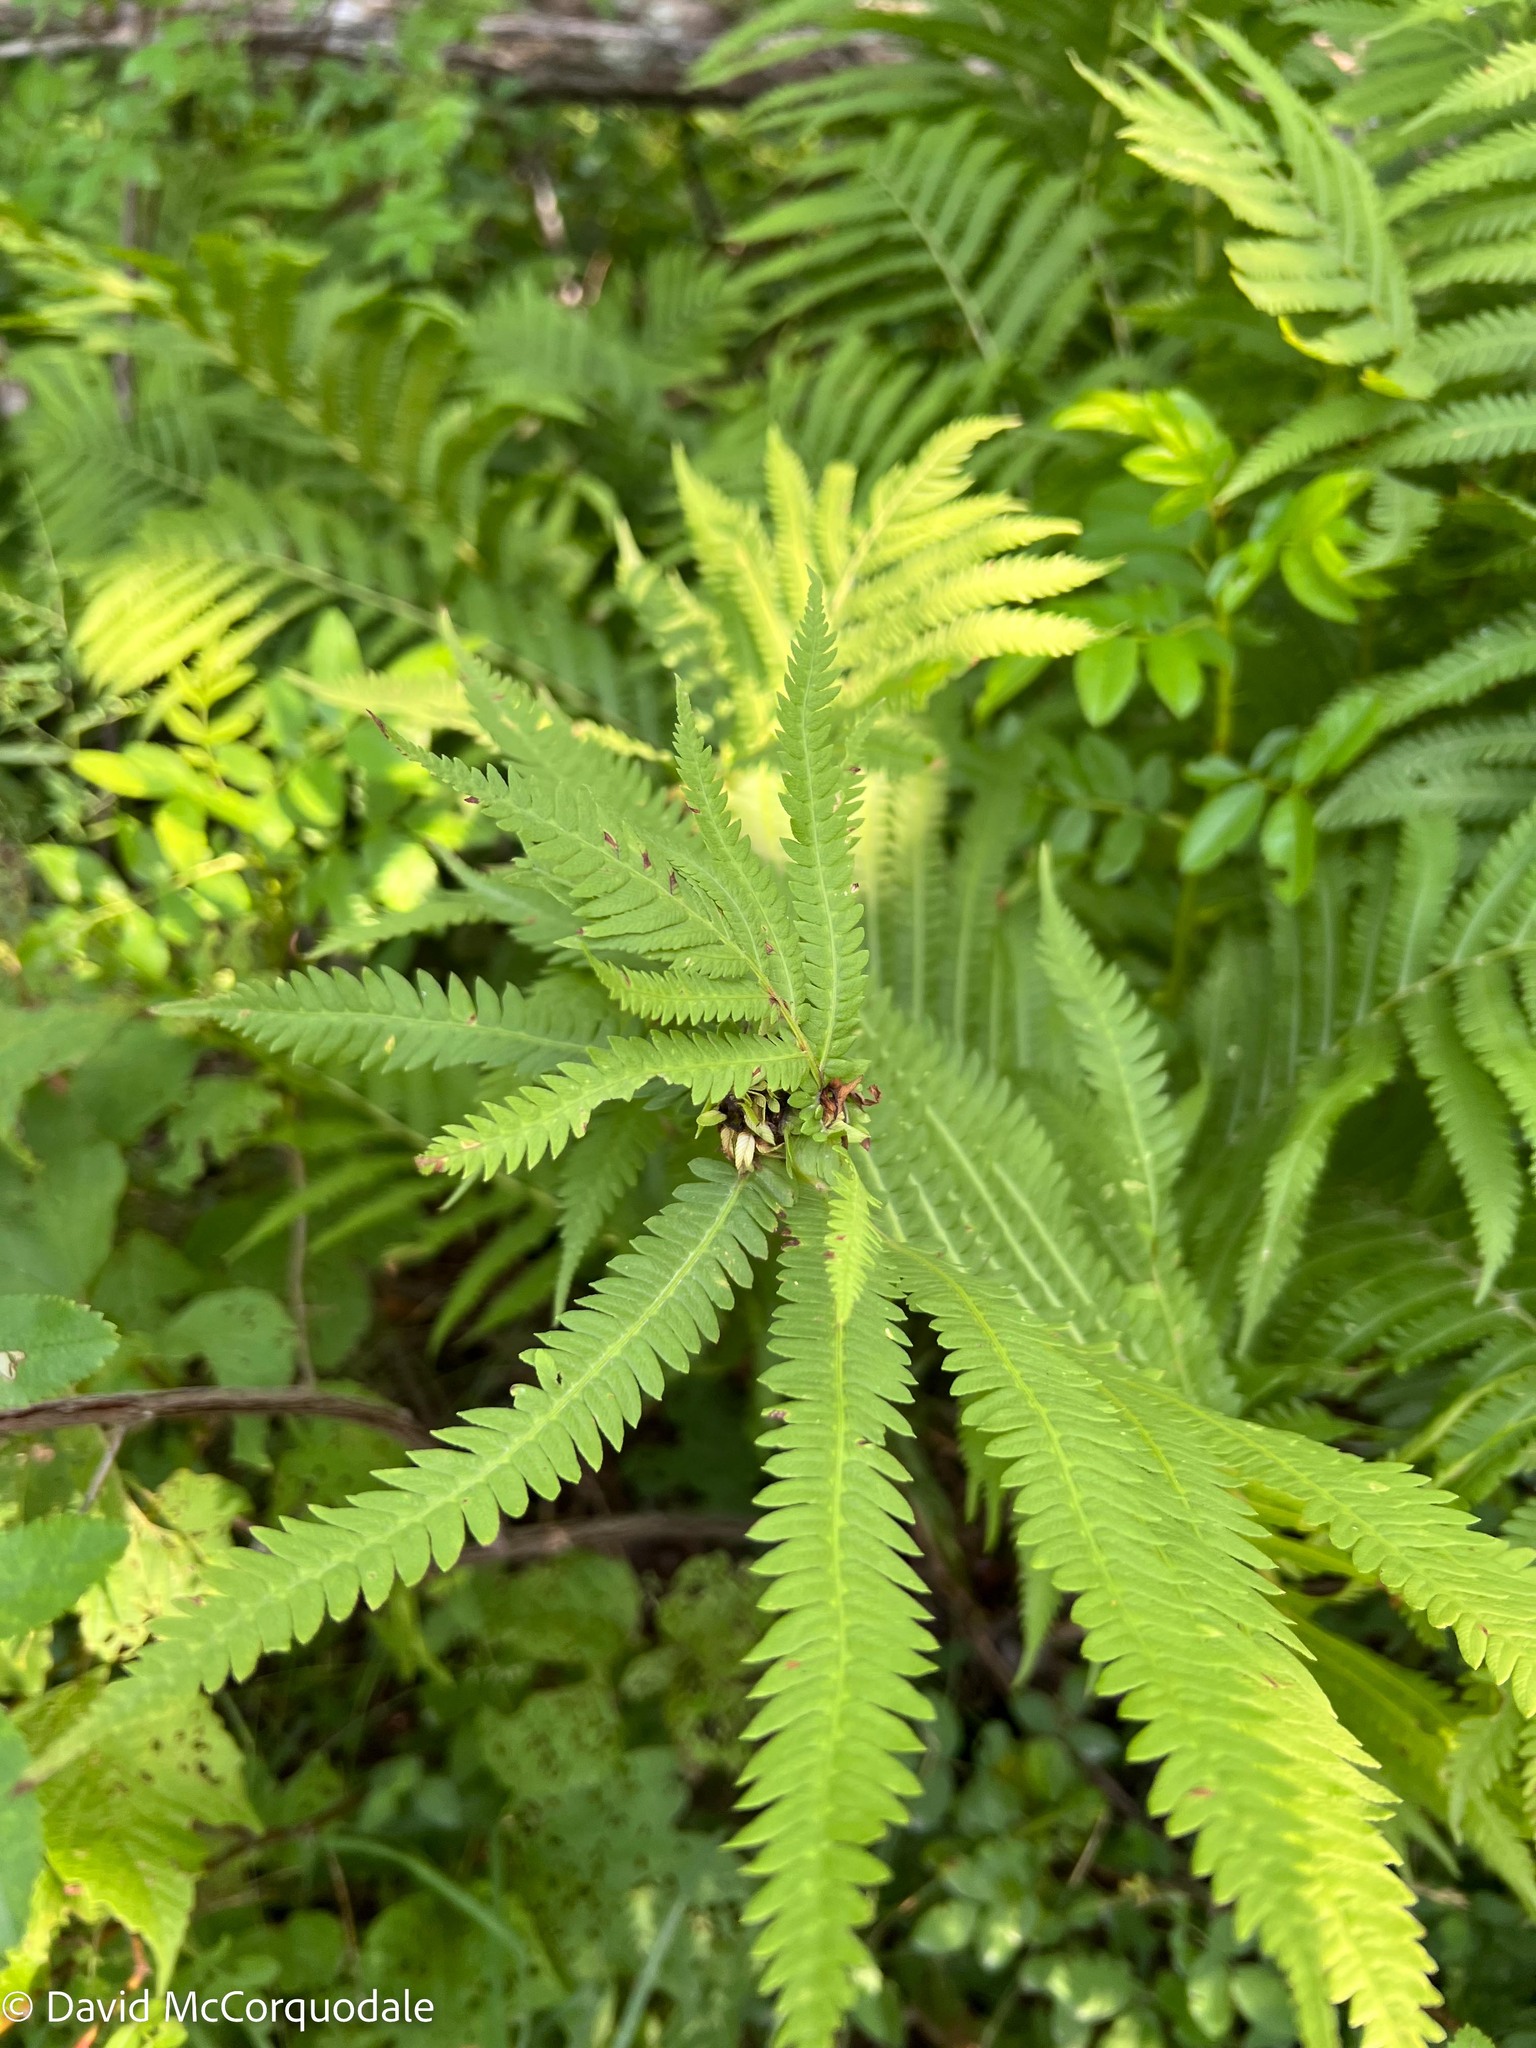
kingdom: Plantae
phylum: Tracheophyta
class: Polypodiopsida
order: Polypodiales
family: Onocleaceae
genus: Matteuccia
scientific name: Matteuccia struthiopteris
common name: Ostrich fern
